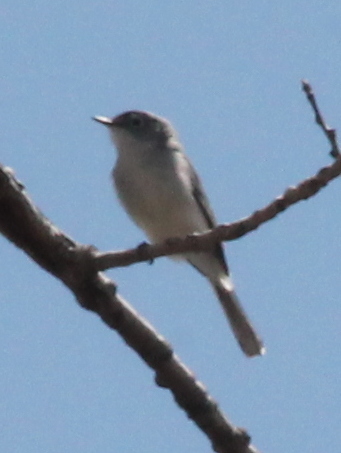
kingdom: Animalia
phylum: Chordata
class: Aves
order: Passeriformes
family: Polioptilidae
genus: Polioptila
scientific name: Polioptila caerulea
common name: Blue-gray gnatcatcher
